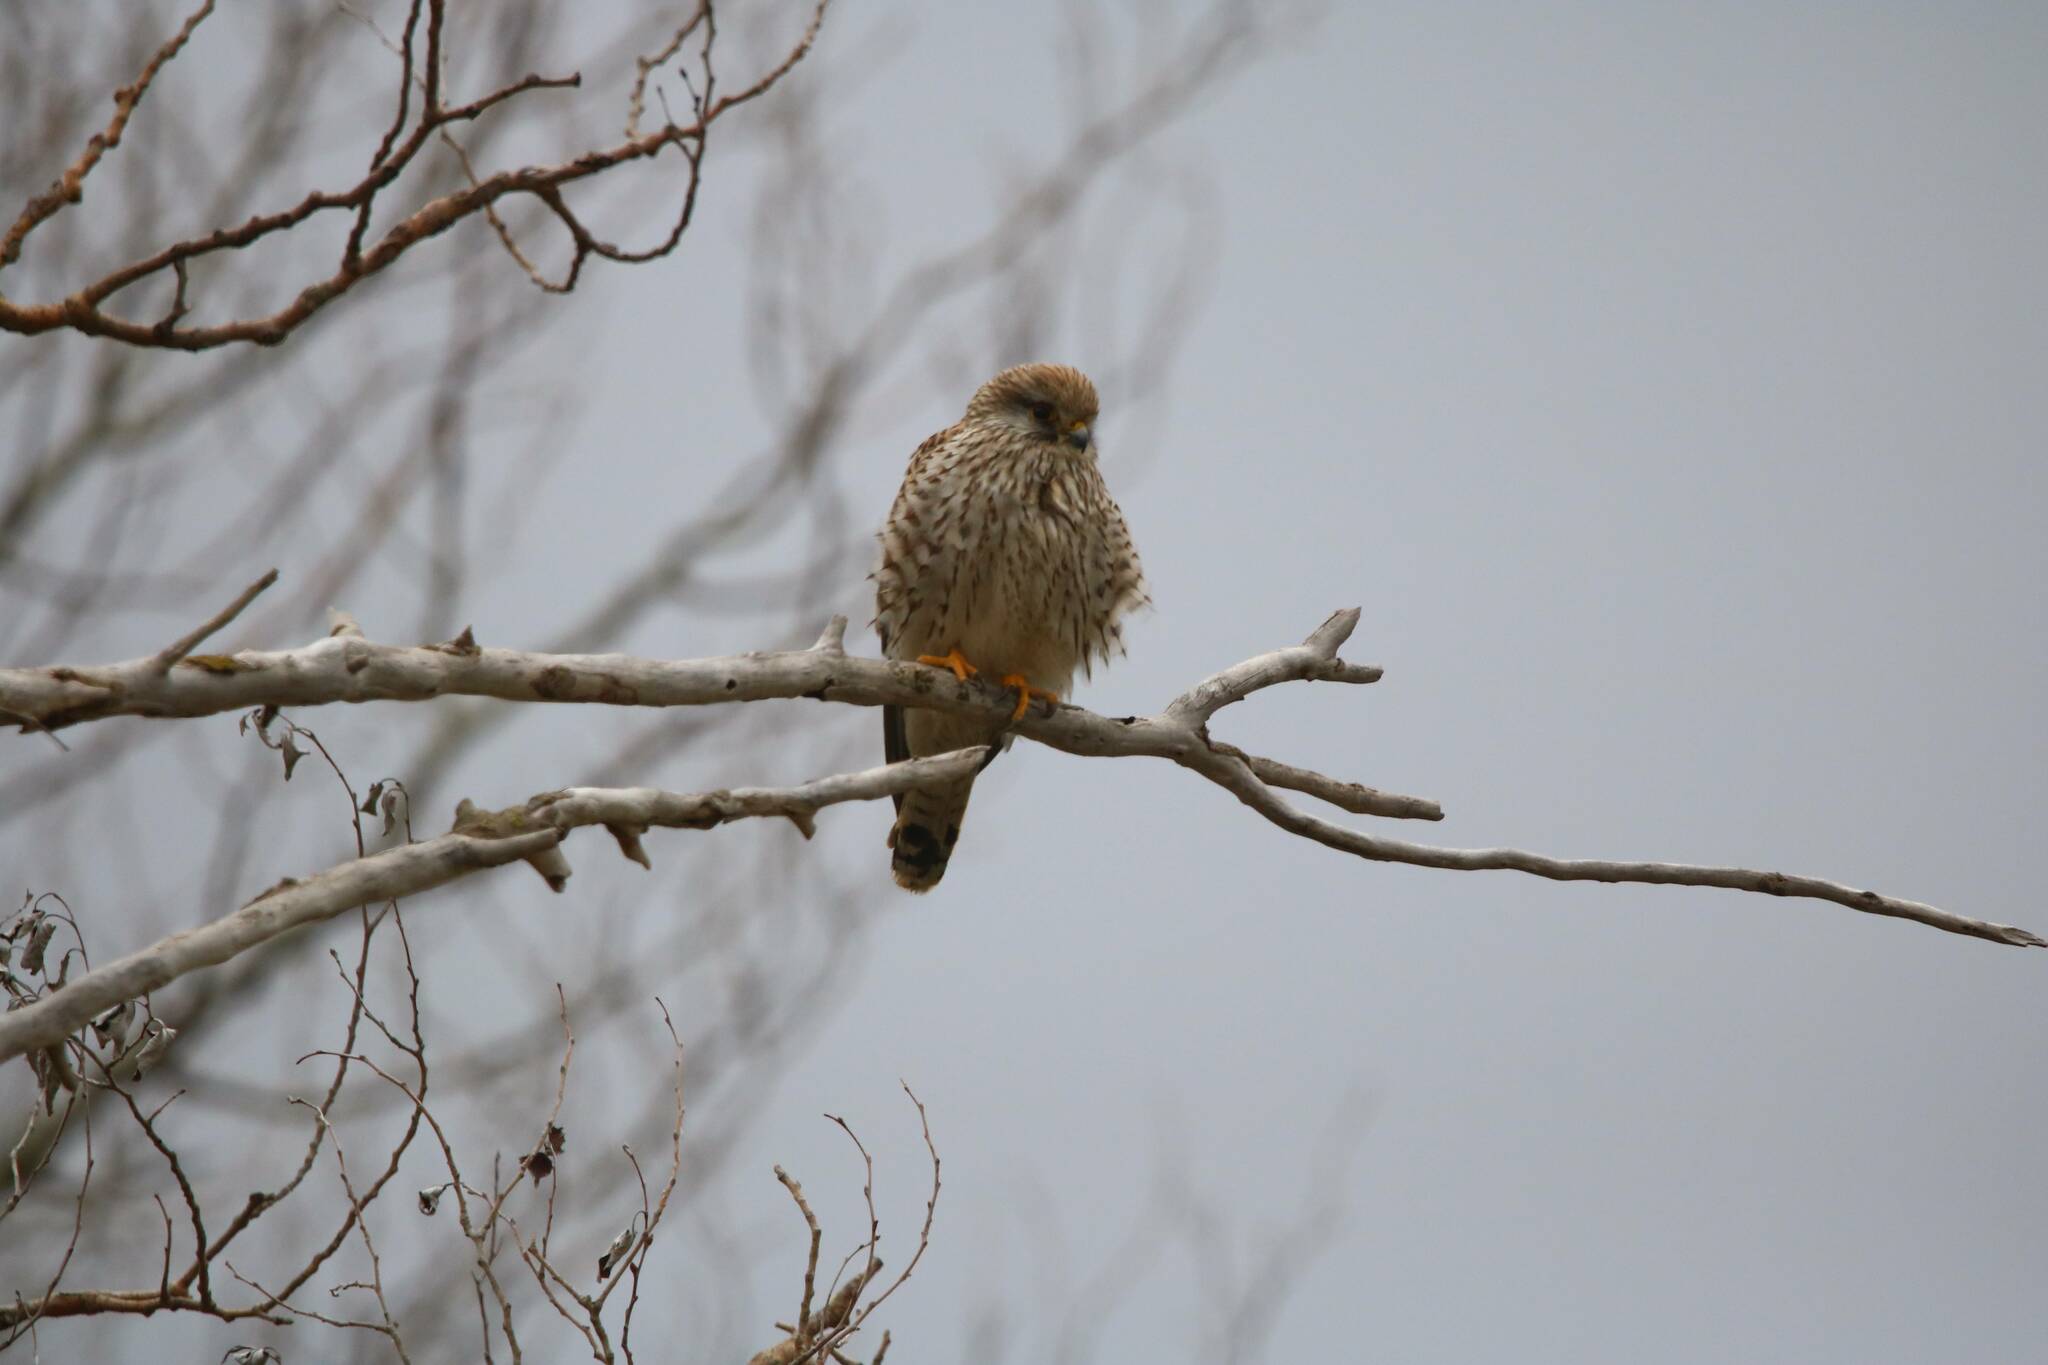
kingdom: Animalia
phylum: Chordata
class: Aves
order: Falconiformes
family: Falconidae
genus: Falco
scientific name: Falco tinnunculus
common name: Common kestrel
